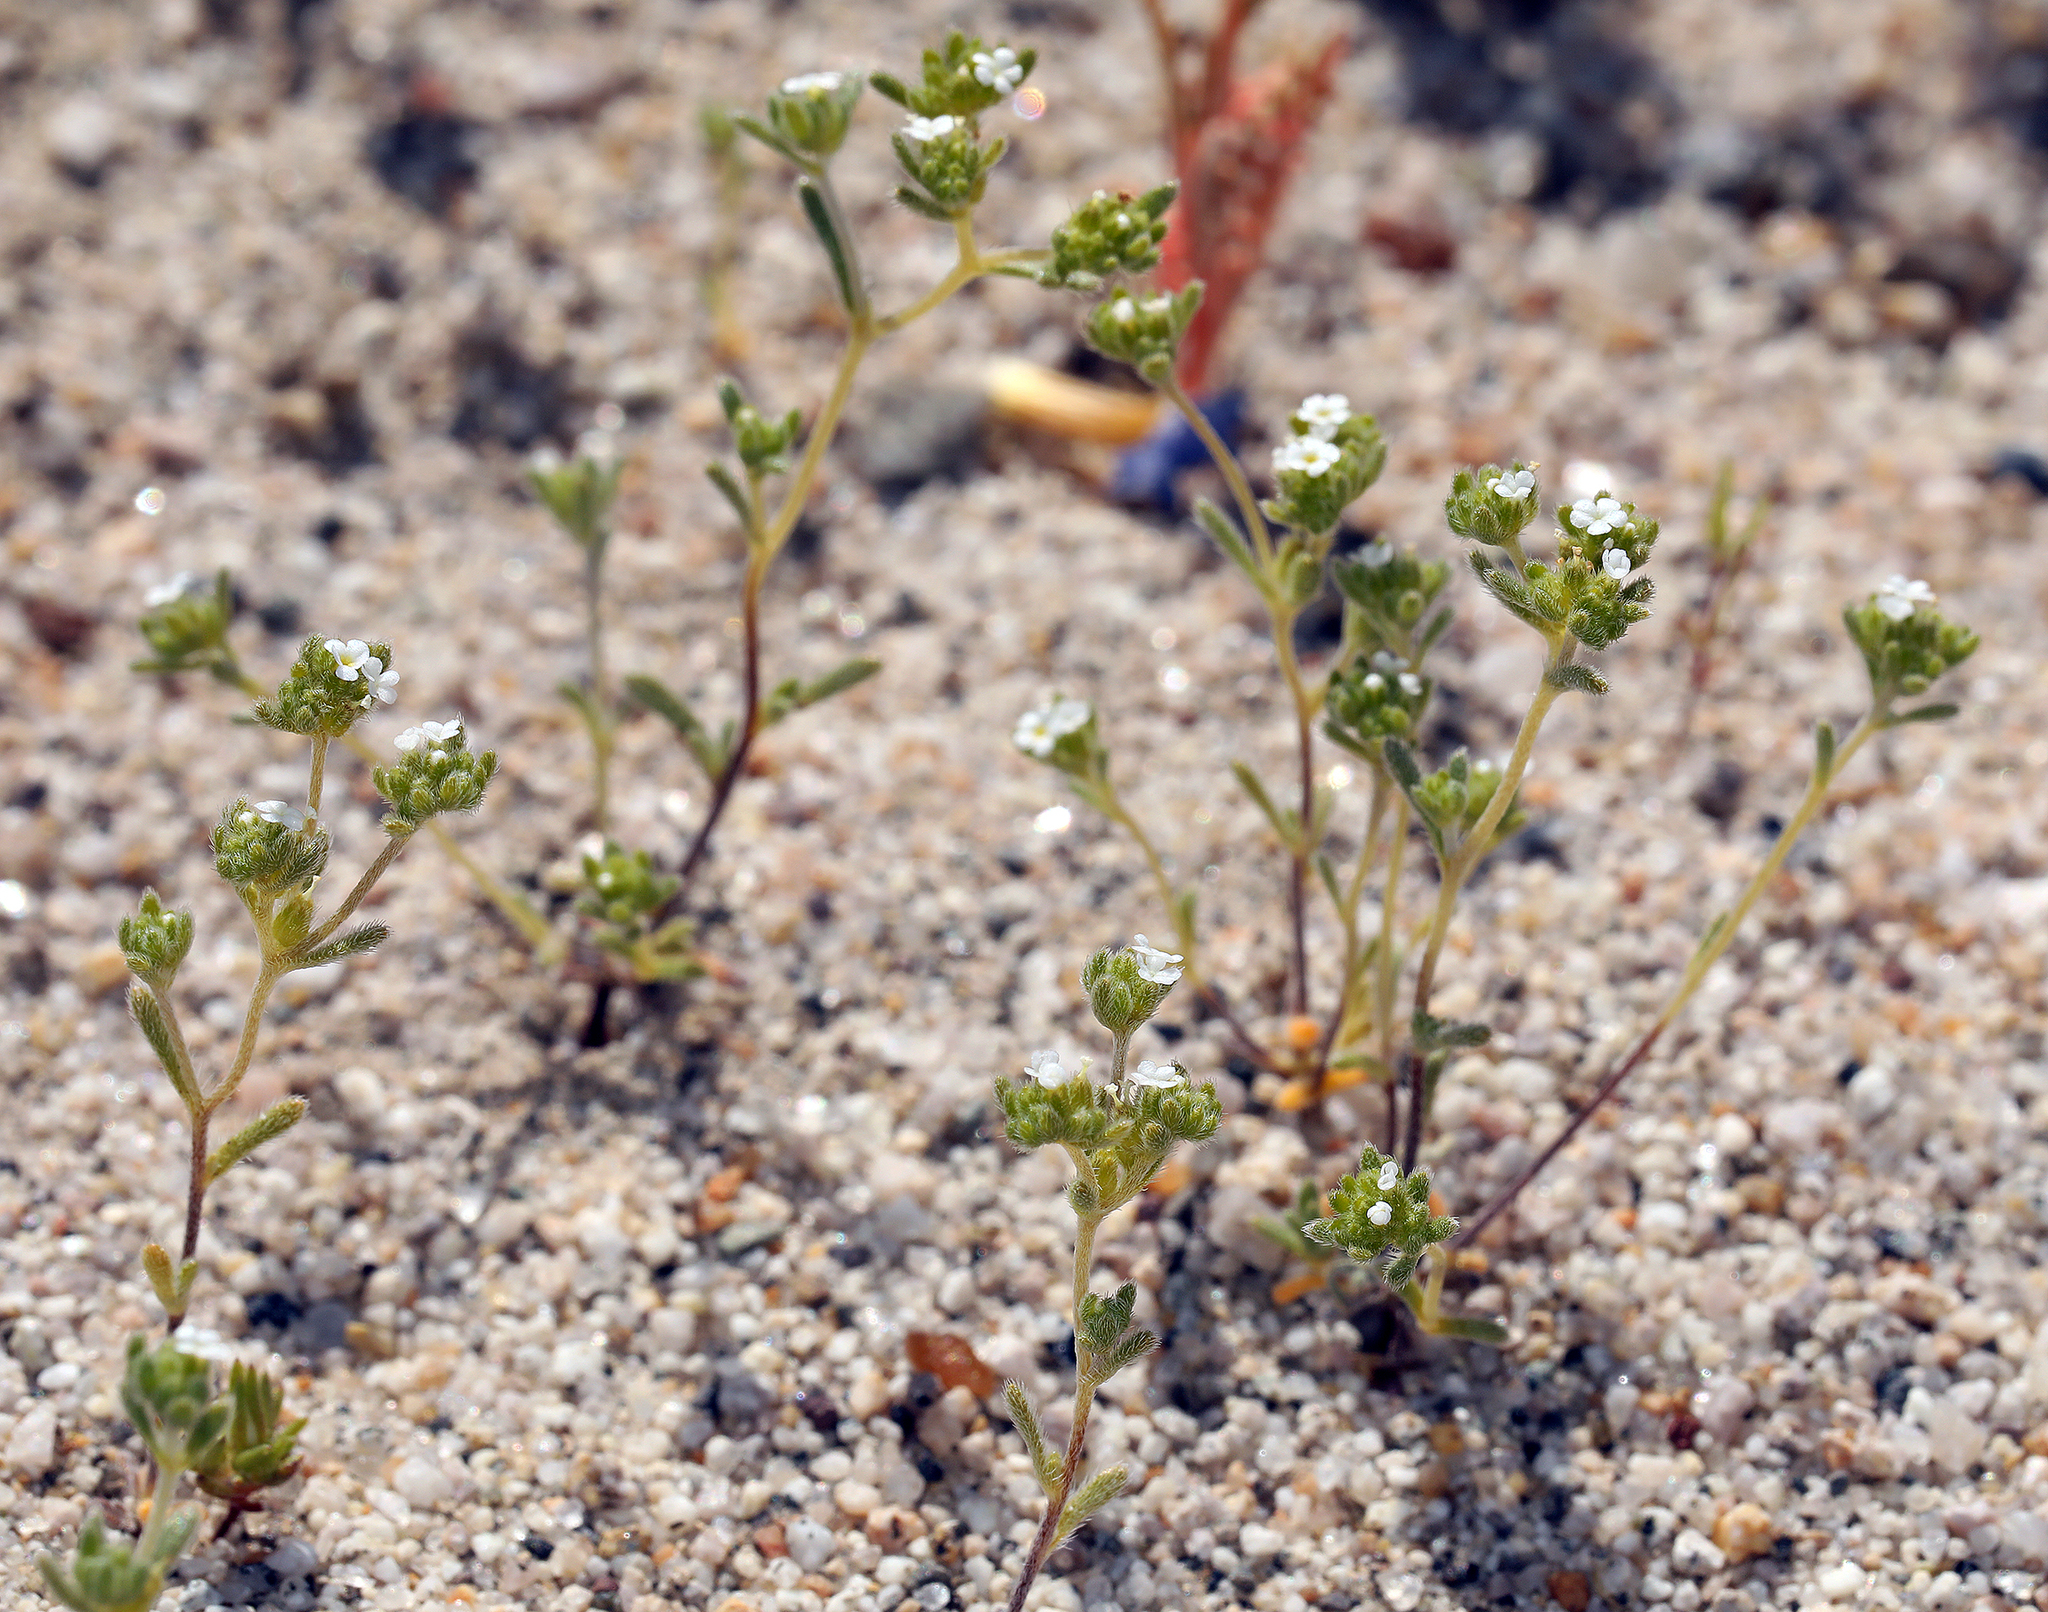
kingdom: Plantae
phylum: Tracheophyta
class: Magnoliopsida
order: Boraginales
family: Boraginaceae
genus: Eremocarya
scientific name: Eremocarya micrantha
